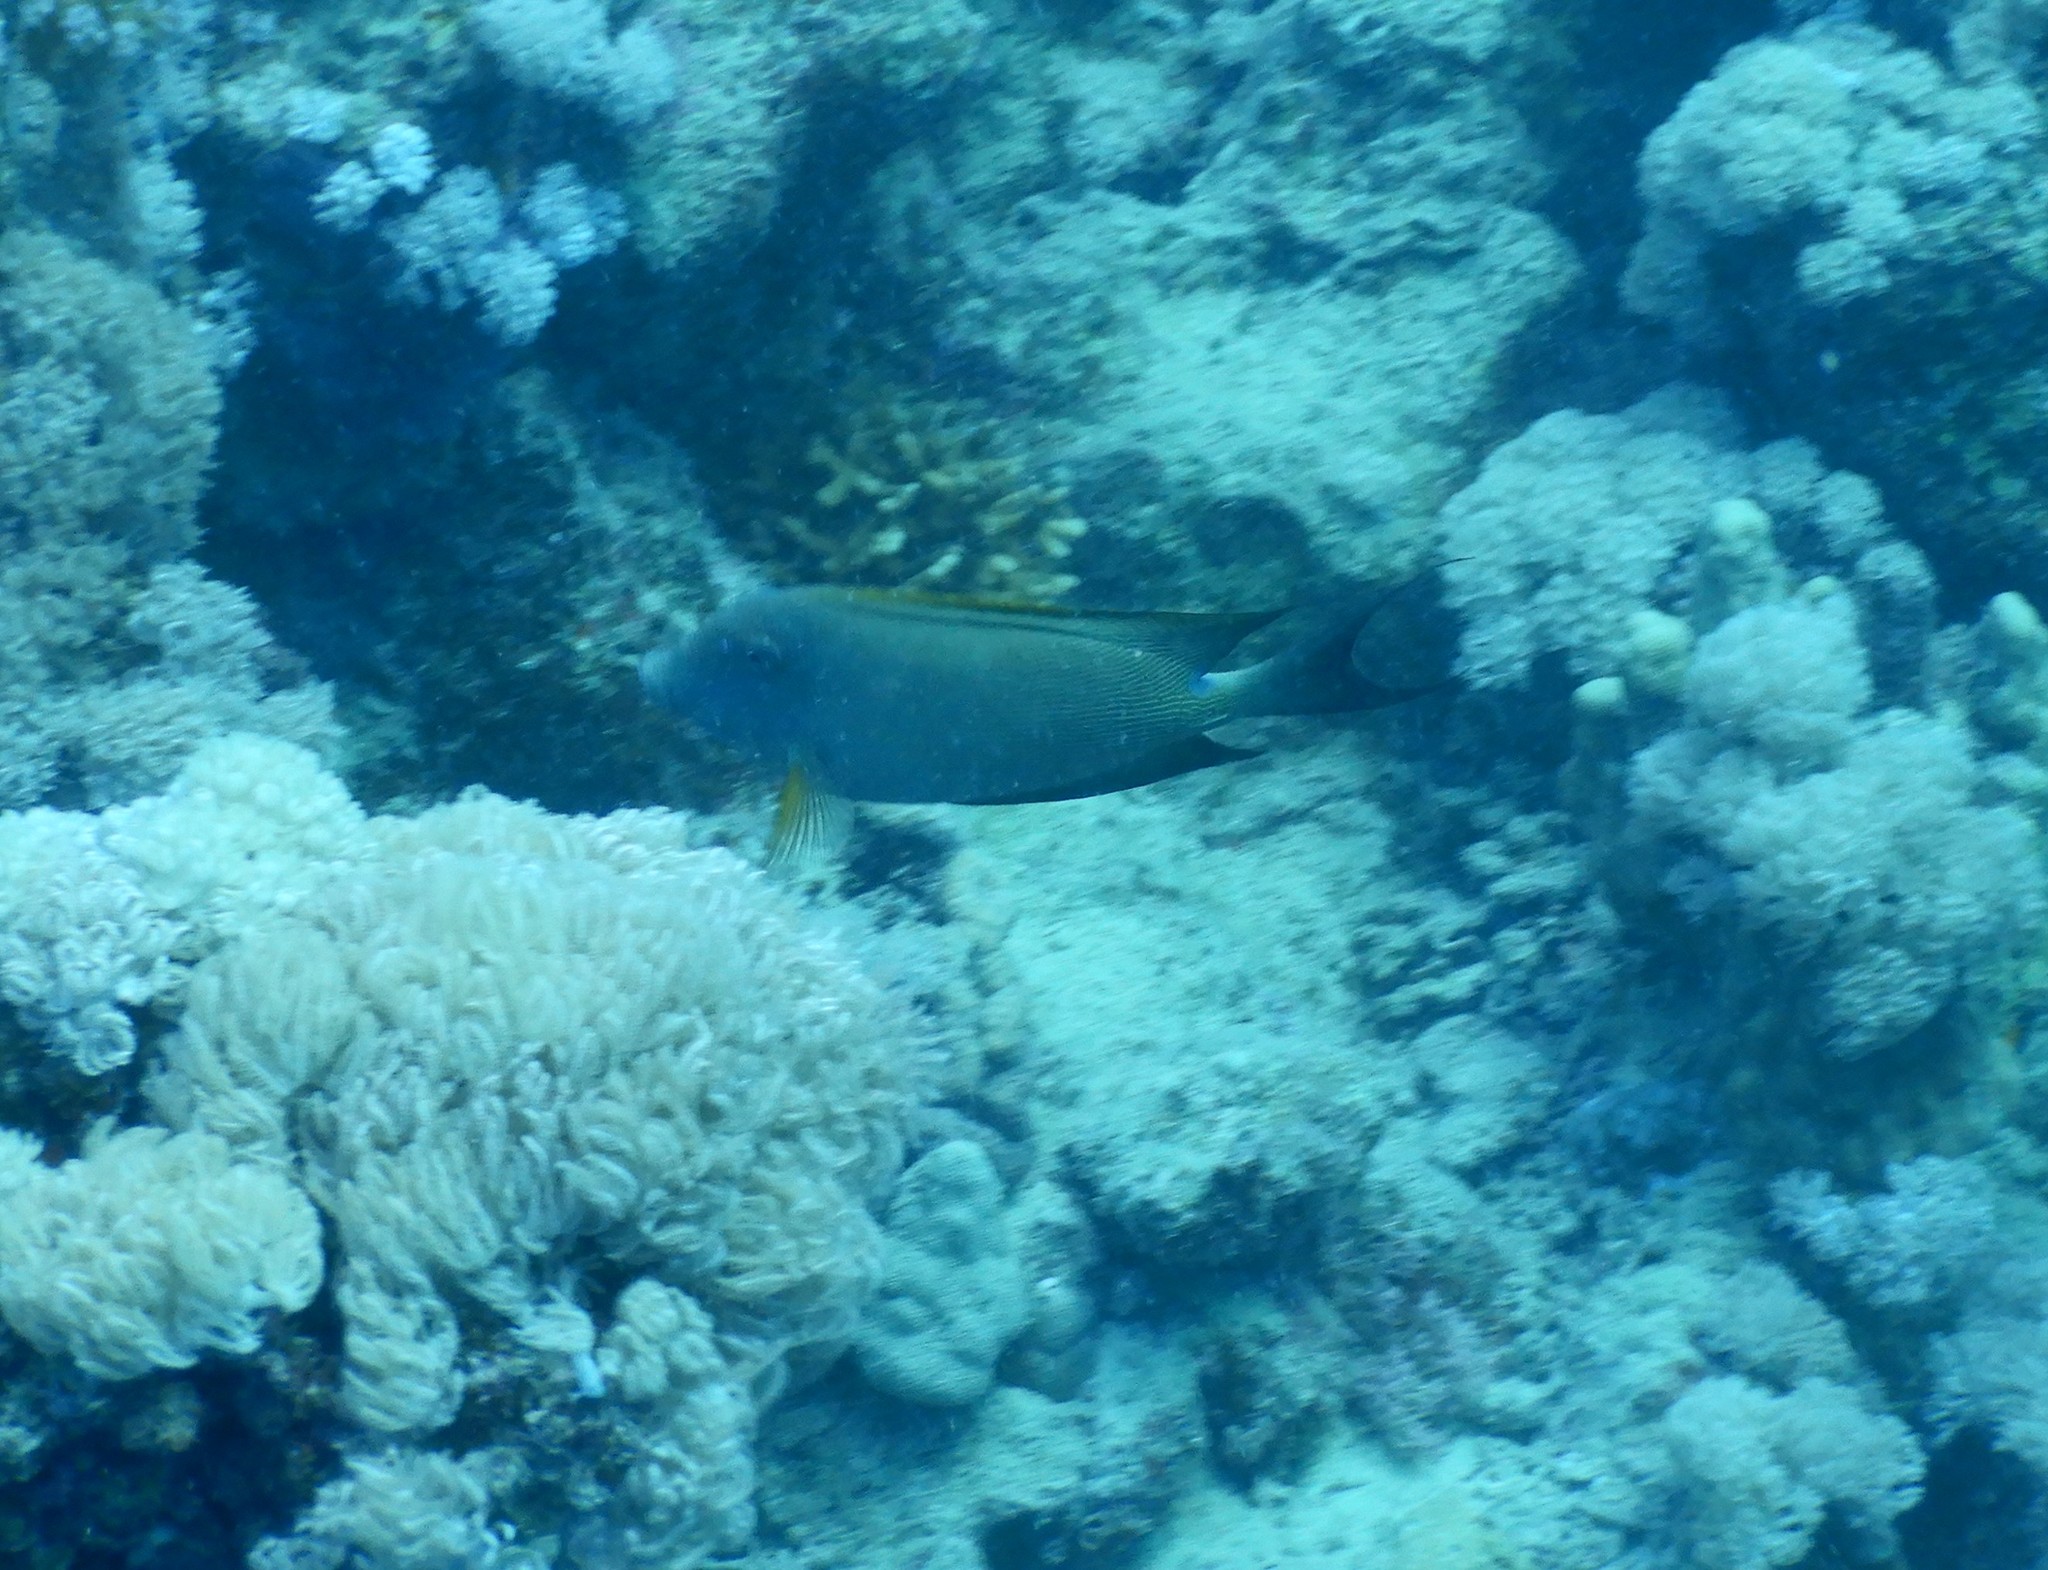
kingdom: Animalia
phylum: Chordata
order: Perciformes
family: Acanthuridae
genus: Ctenochaetus
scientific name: Ctenochaetus striatus
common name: Bristle-toothed surgeonfish
